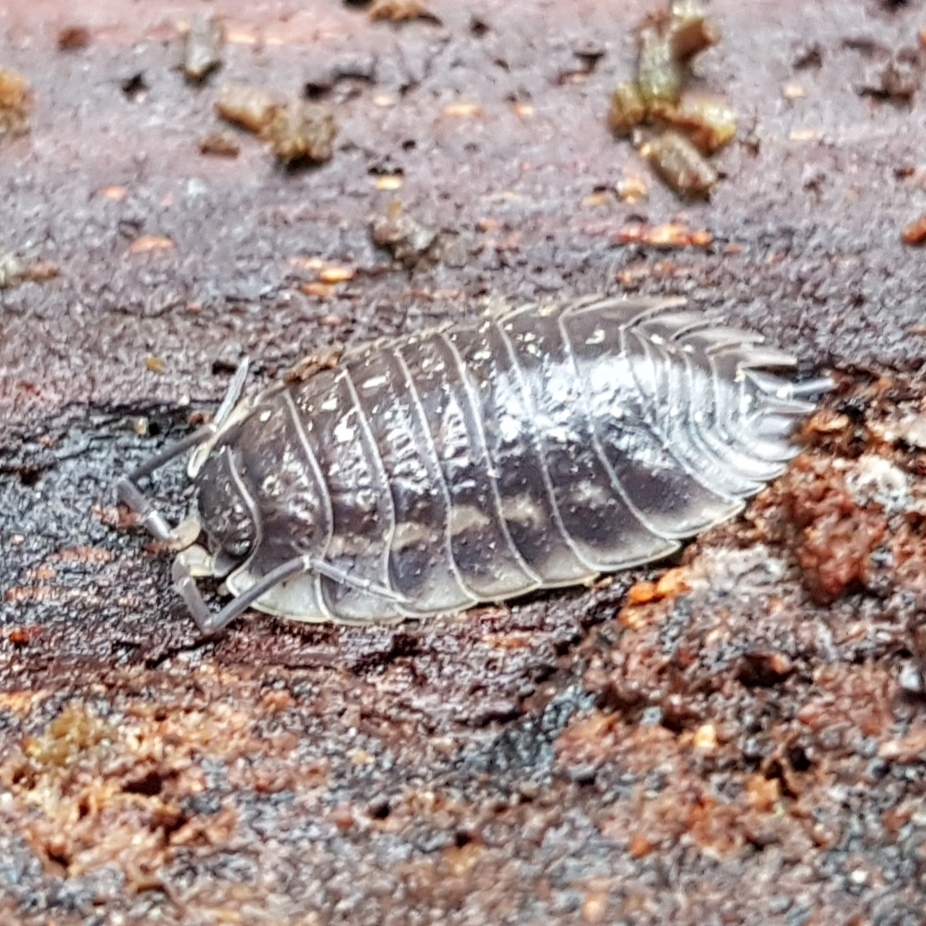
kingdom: Animalia
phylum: Arthropoda
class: Malacostraca
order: Isopoda
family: Oniscidae
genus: Oniscus
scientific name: Oniscus asellus
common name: Common shiny woodlouse
